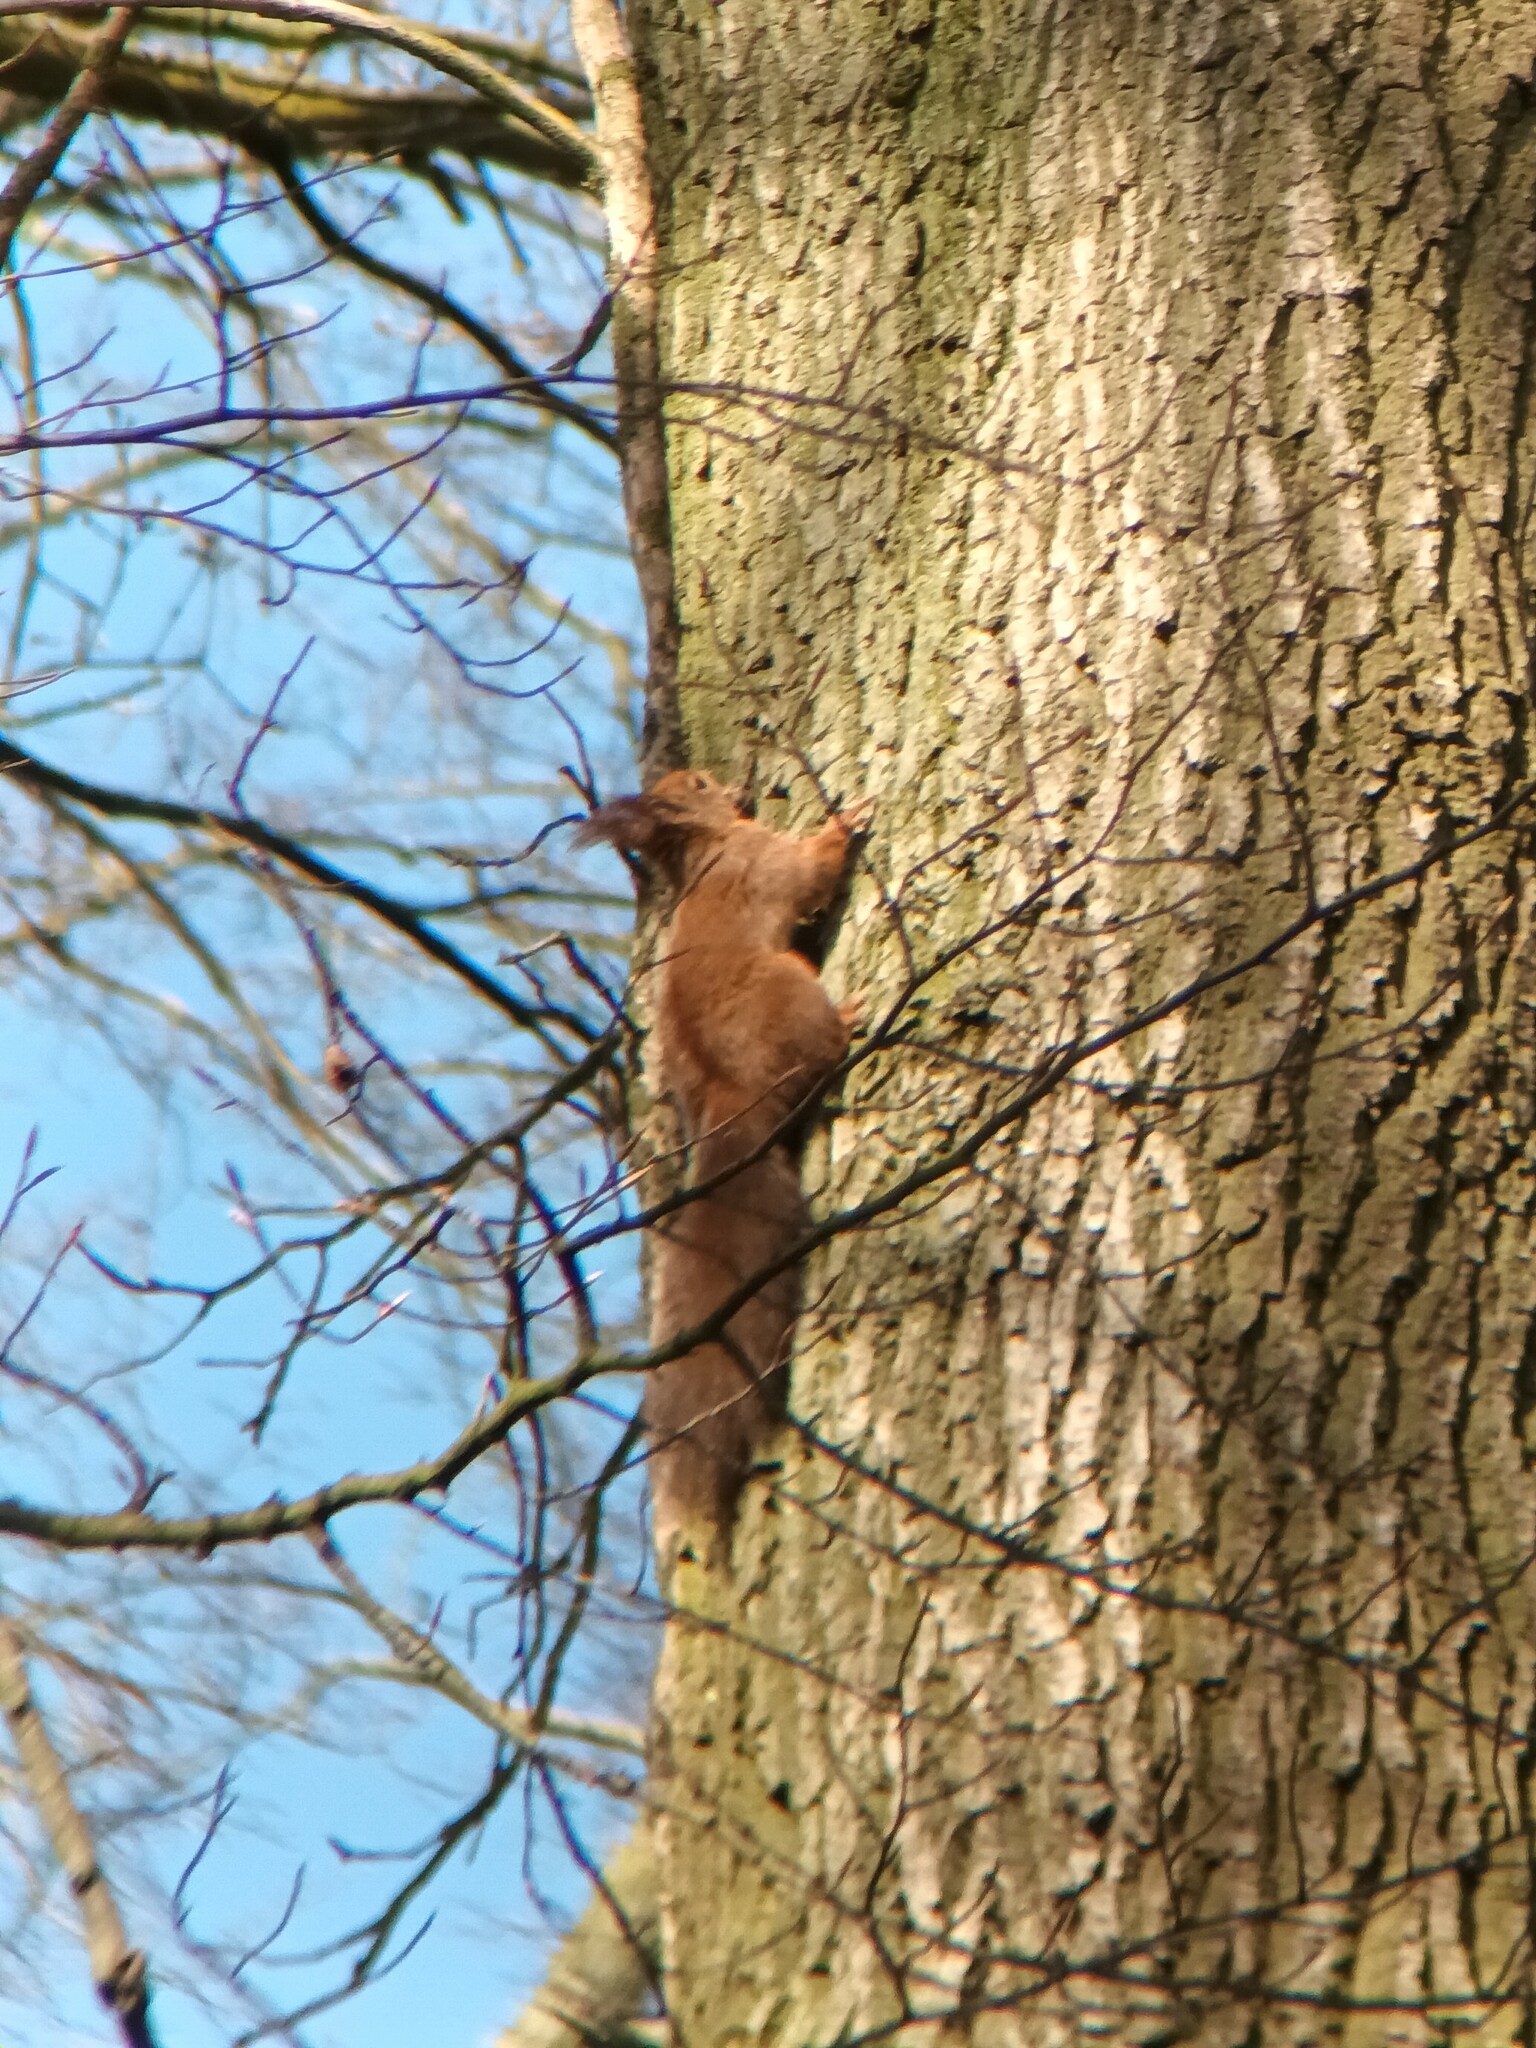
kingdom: Animalia
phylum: Chordata
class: Mammalia
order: Rodentia
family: Sciuridae
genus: Sciurus
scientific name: Sciurus vulgaris
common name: Eurasian red squirrel
